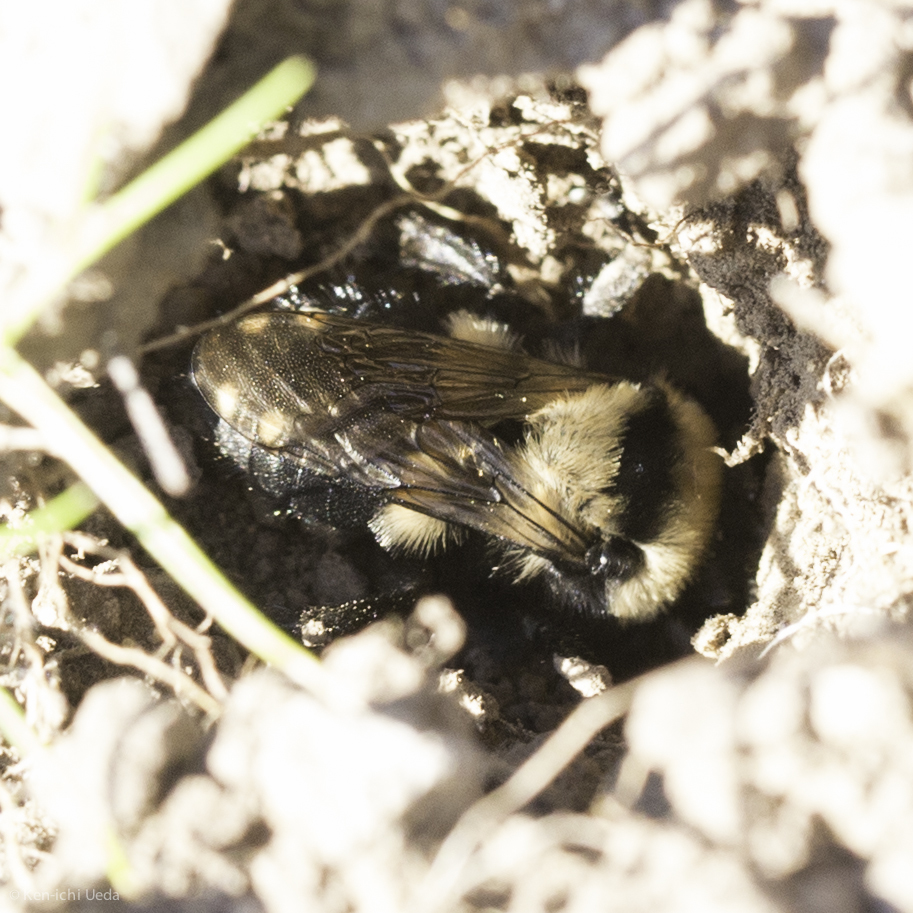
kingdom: Animalia
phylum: Arthropoda
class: Insecta
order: Hymenoptera
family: Apidae
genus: Melecta
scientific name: Melecta separata
